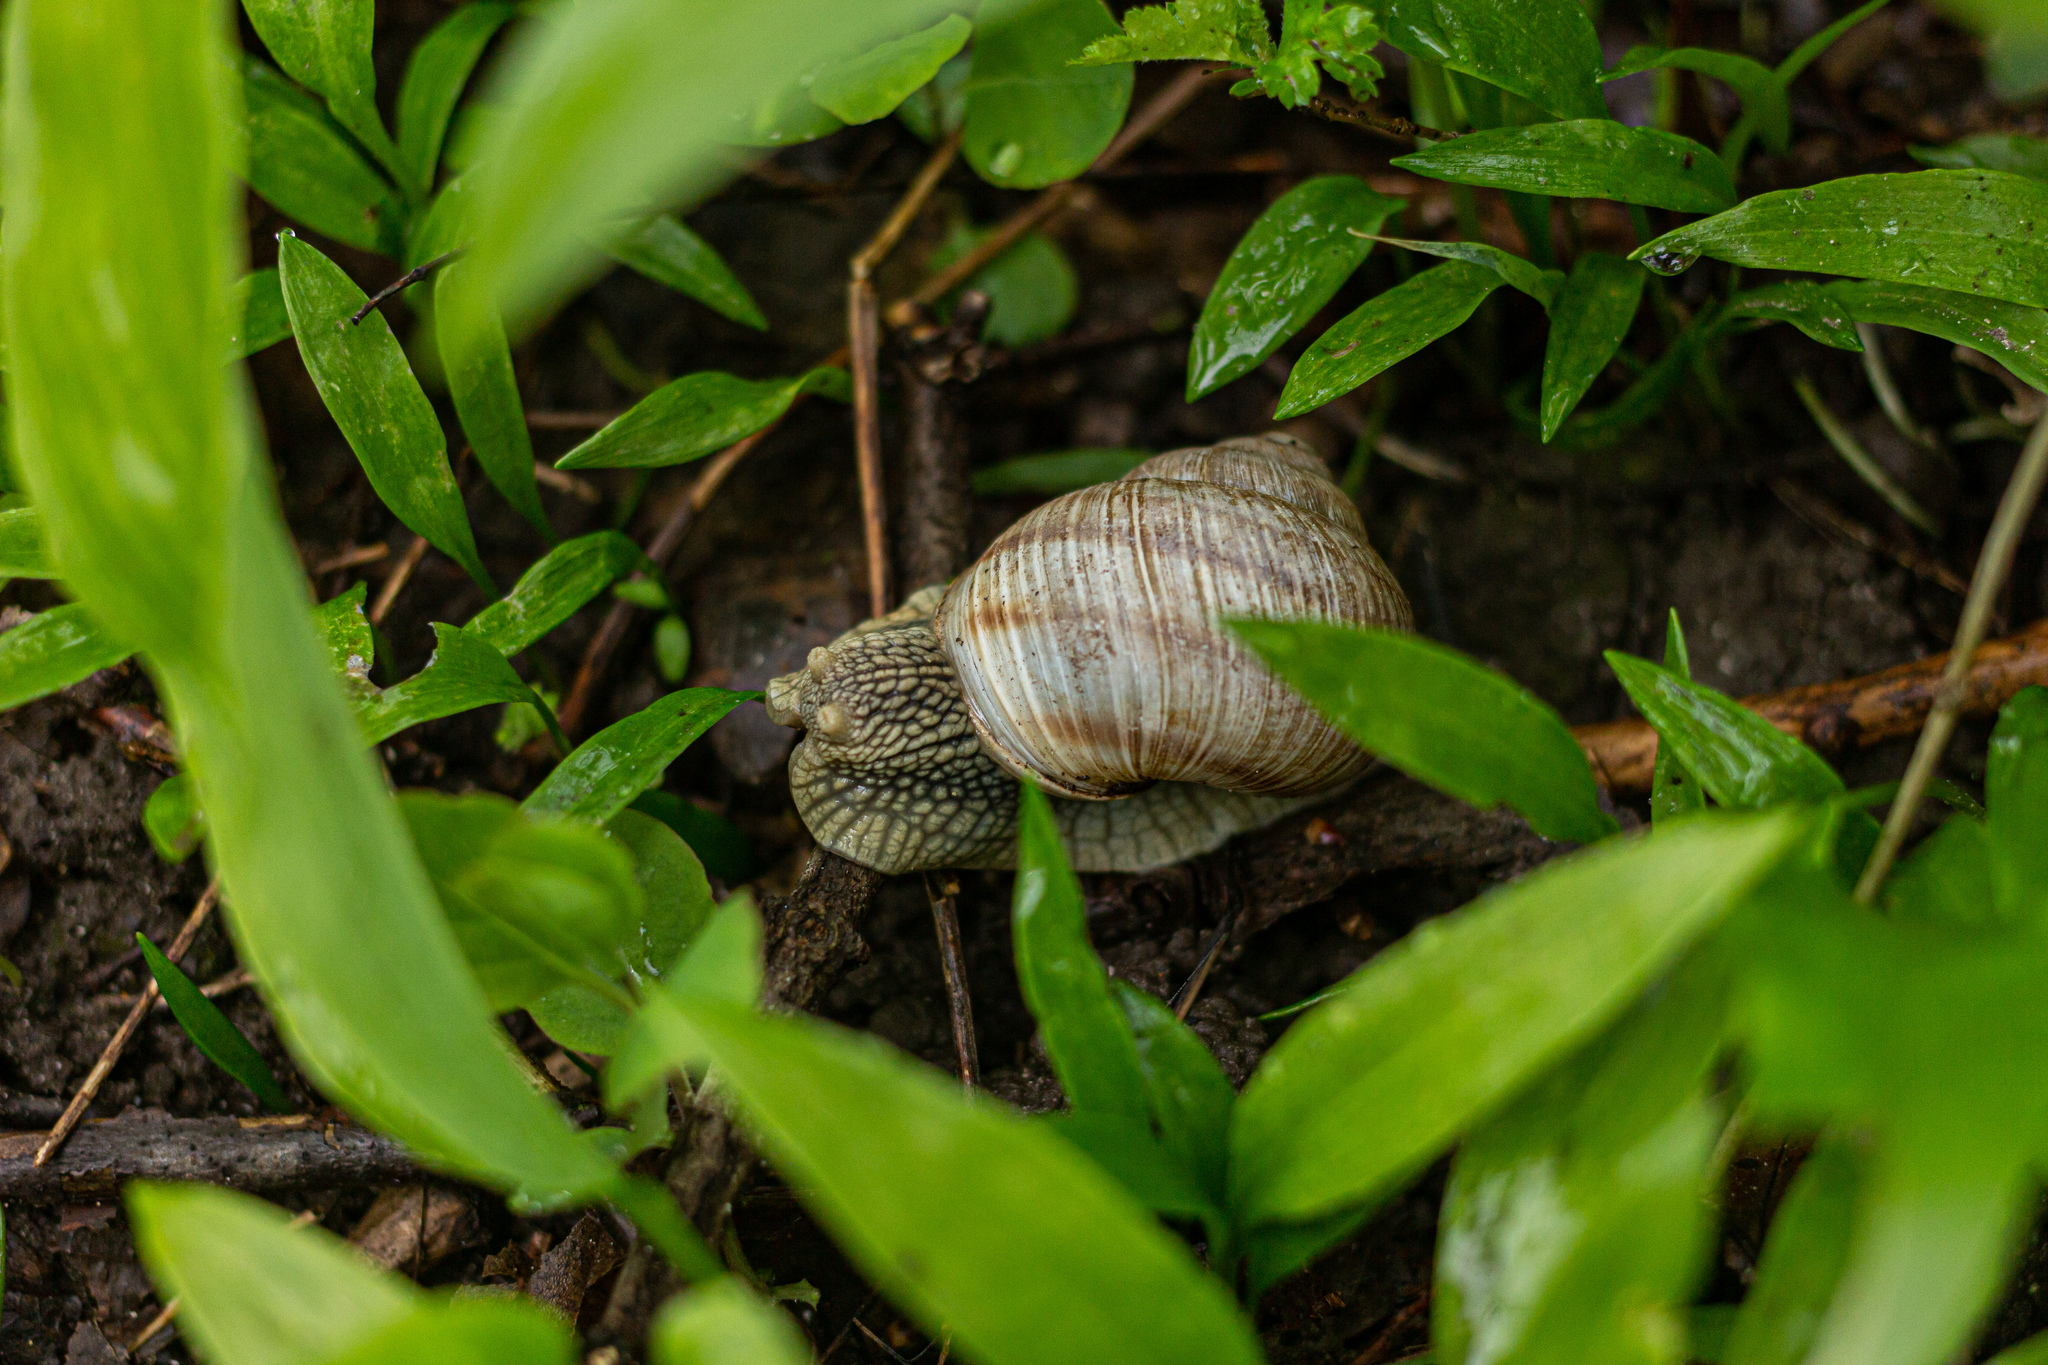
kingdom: Animalia
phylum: Mollusca
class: Gastropoda
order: Stylommatophora
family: Helicidae
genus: Helix
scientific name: Helix pomatia
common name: Roman snail
